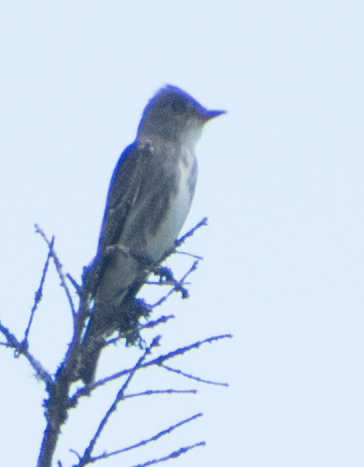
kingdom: Animalia
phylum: Chordata
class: Aves
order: Passeriformes
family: Tyrannidae
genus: Contopus
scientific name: Contopus cooperi
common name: Olive-sided flycatcher
